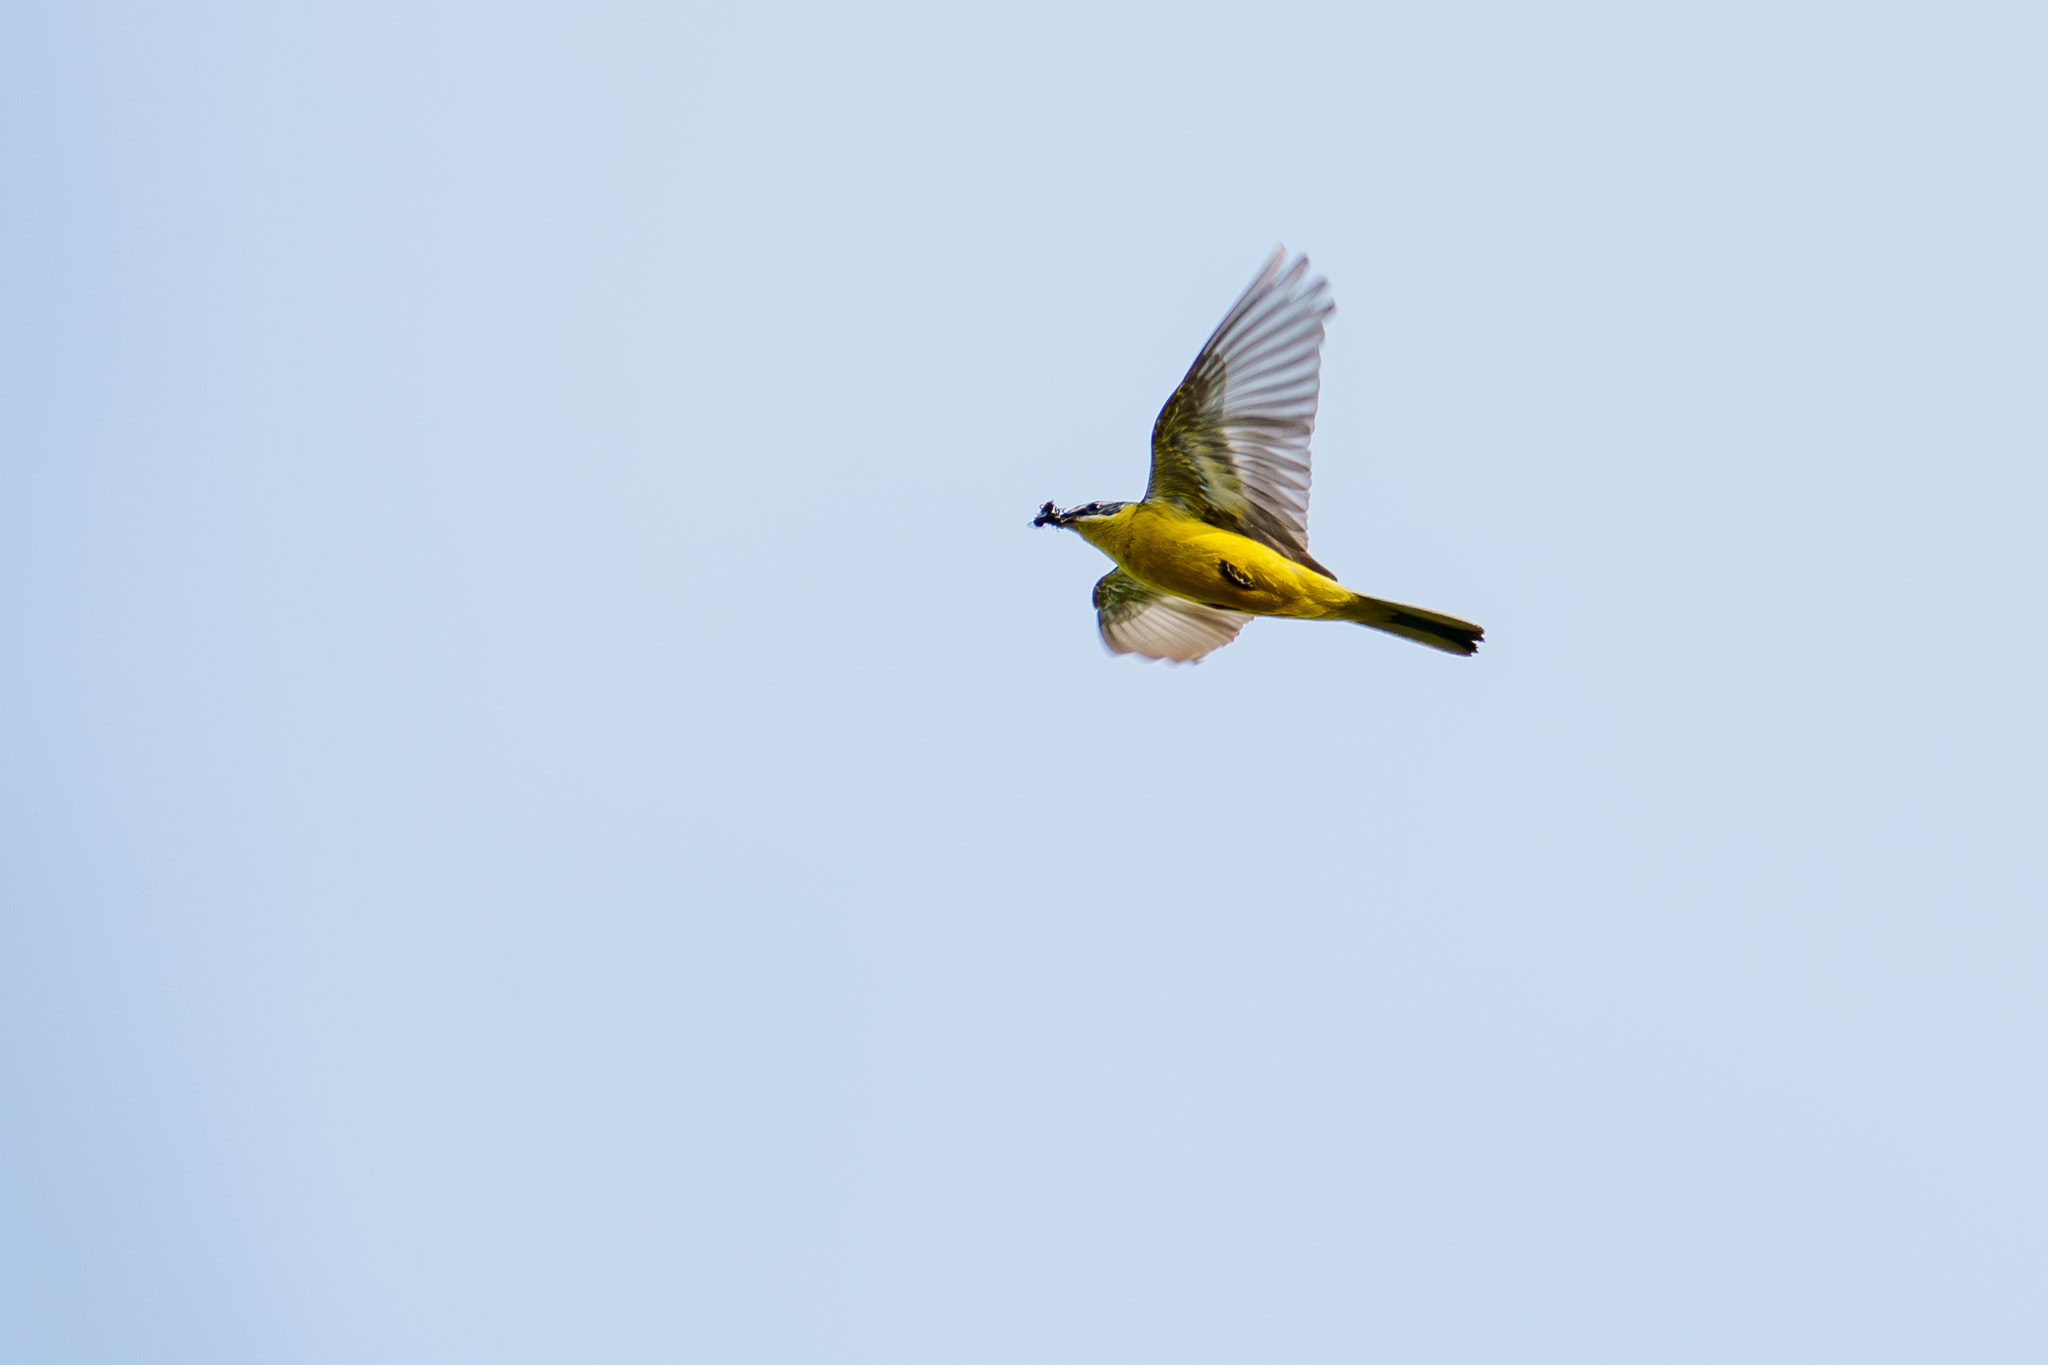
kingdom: Animalia
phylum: Chordata
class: Aves
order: Passeriformes
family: Motacillidae
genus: Motacilla
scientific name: Motacilla flava
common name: Western yellow wagtail
